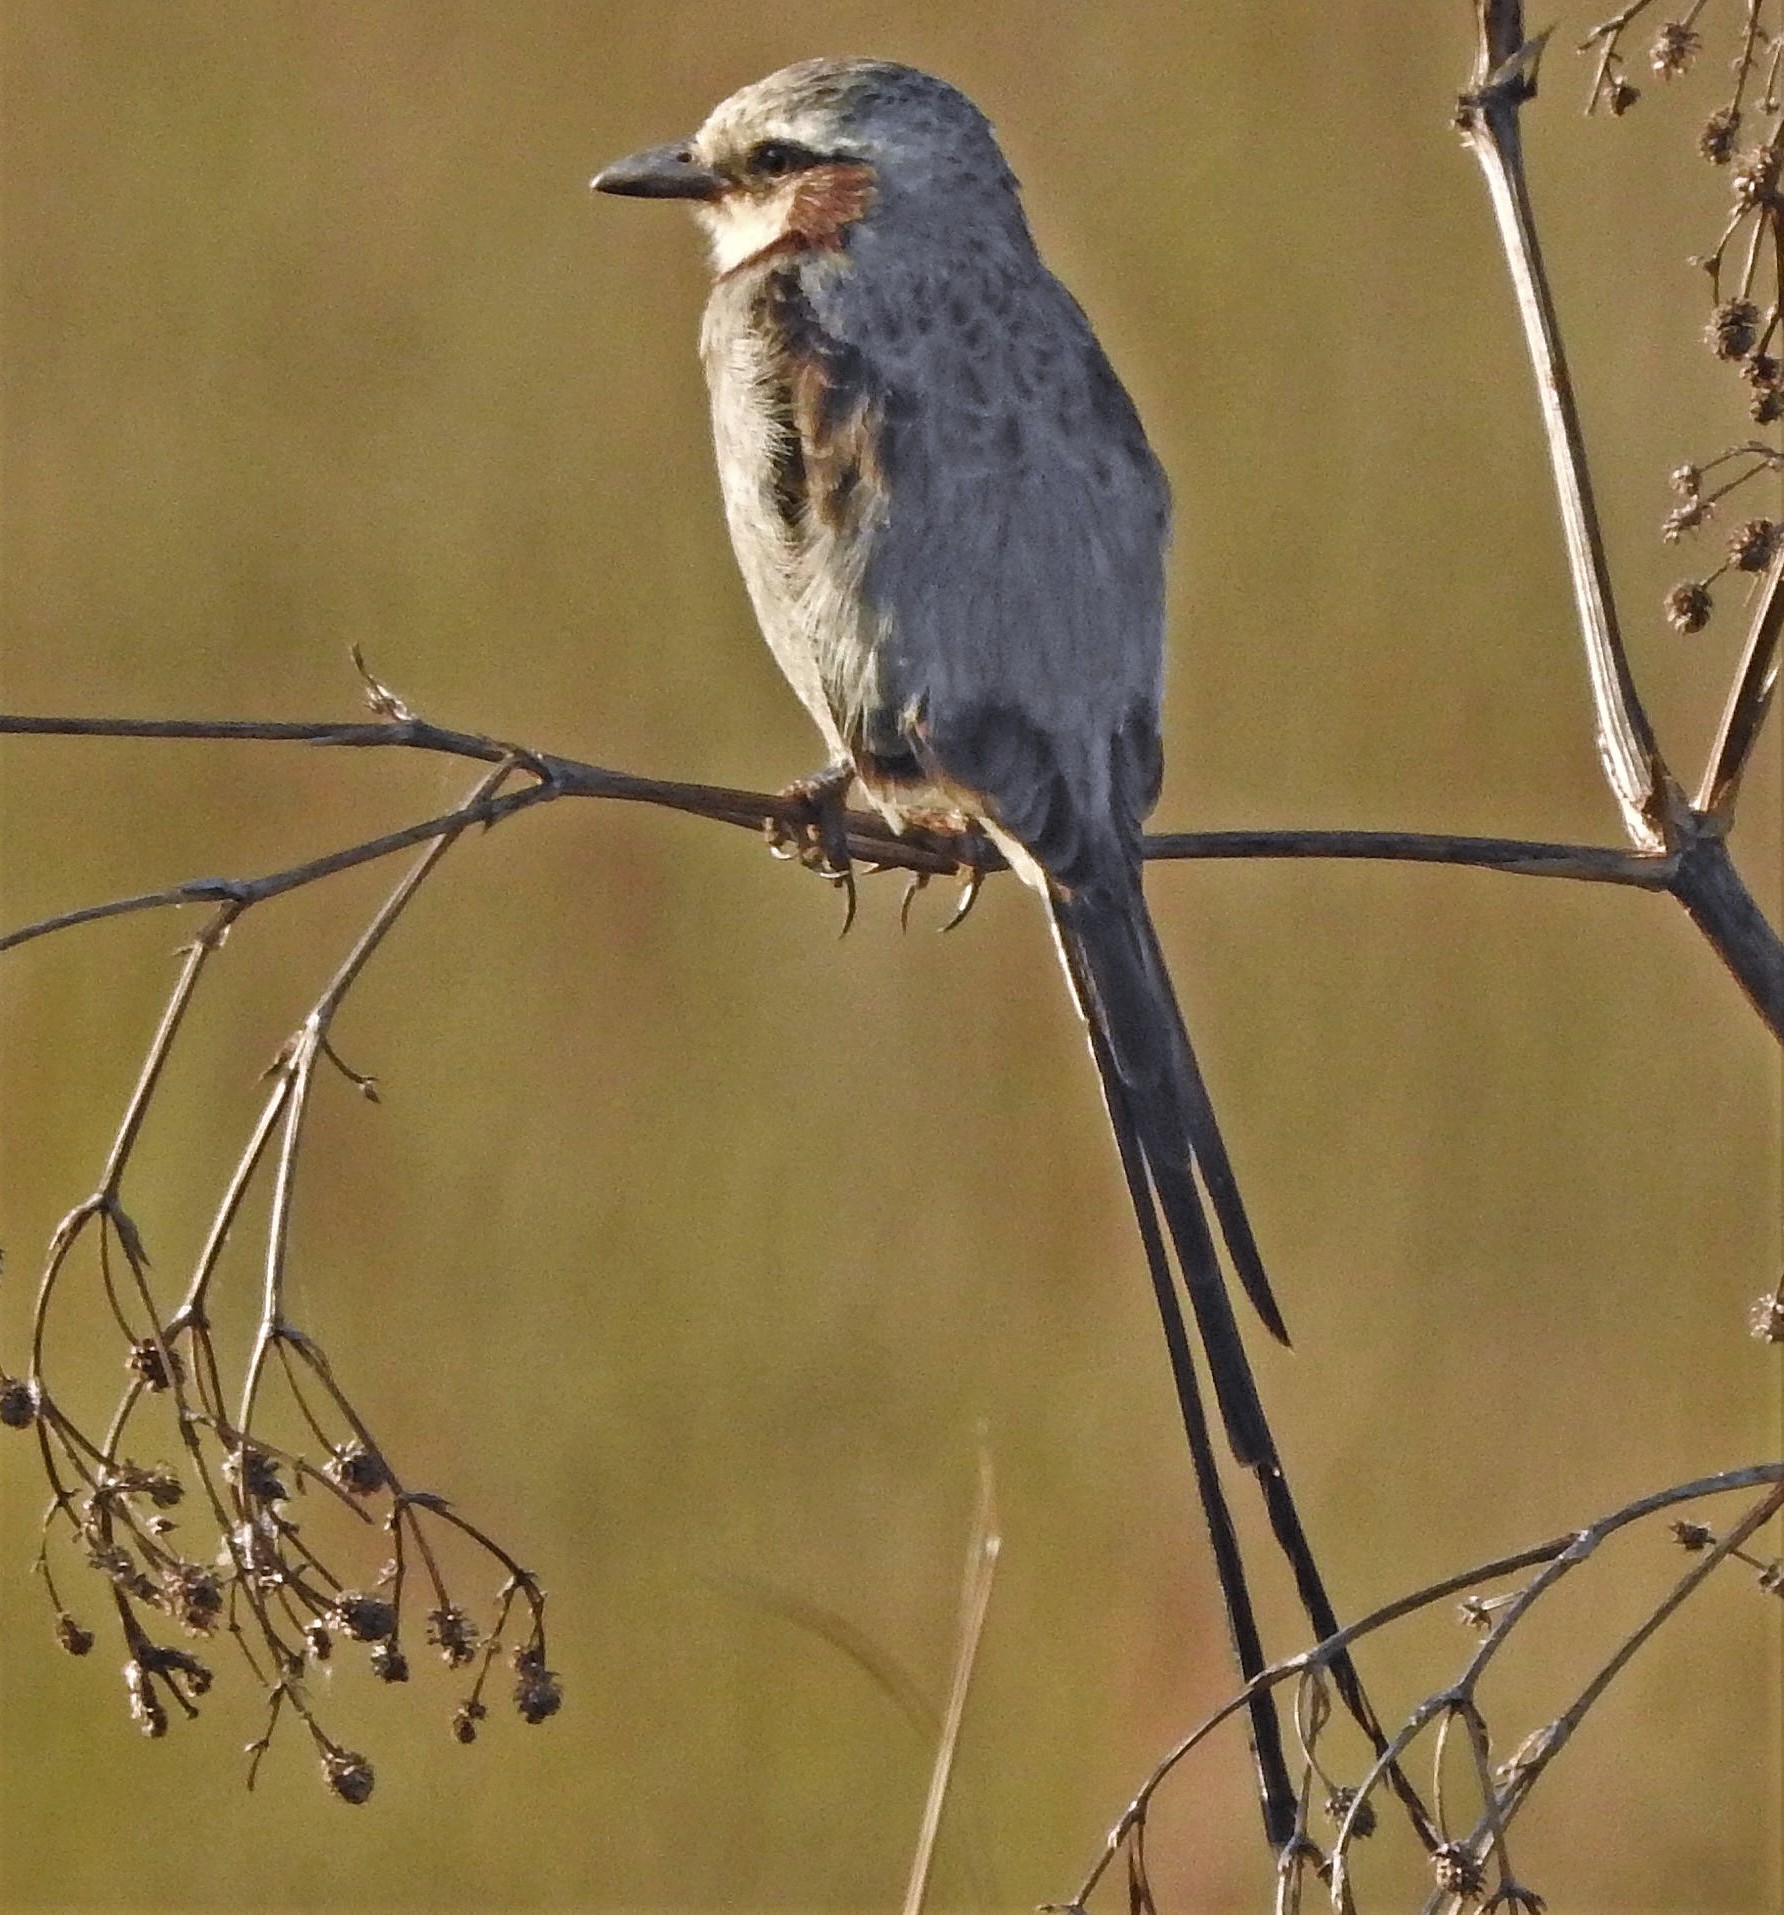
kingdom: Animalia
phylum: Chordata
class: Aves
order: Passeriformes
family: Tyrannidae
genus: Gubernetes
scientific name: Gubernetes yetapa
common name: Streamer-tailed tyrant
